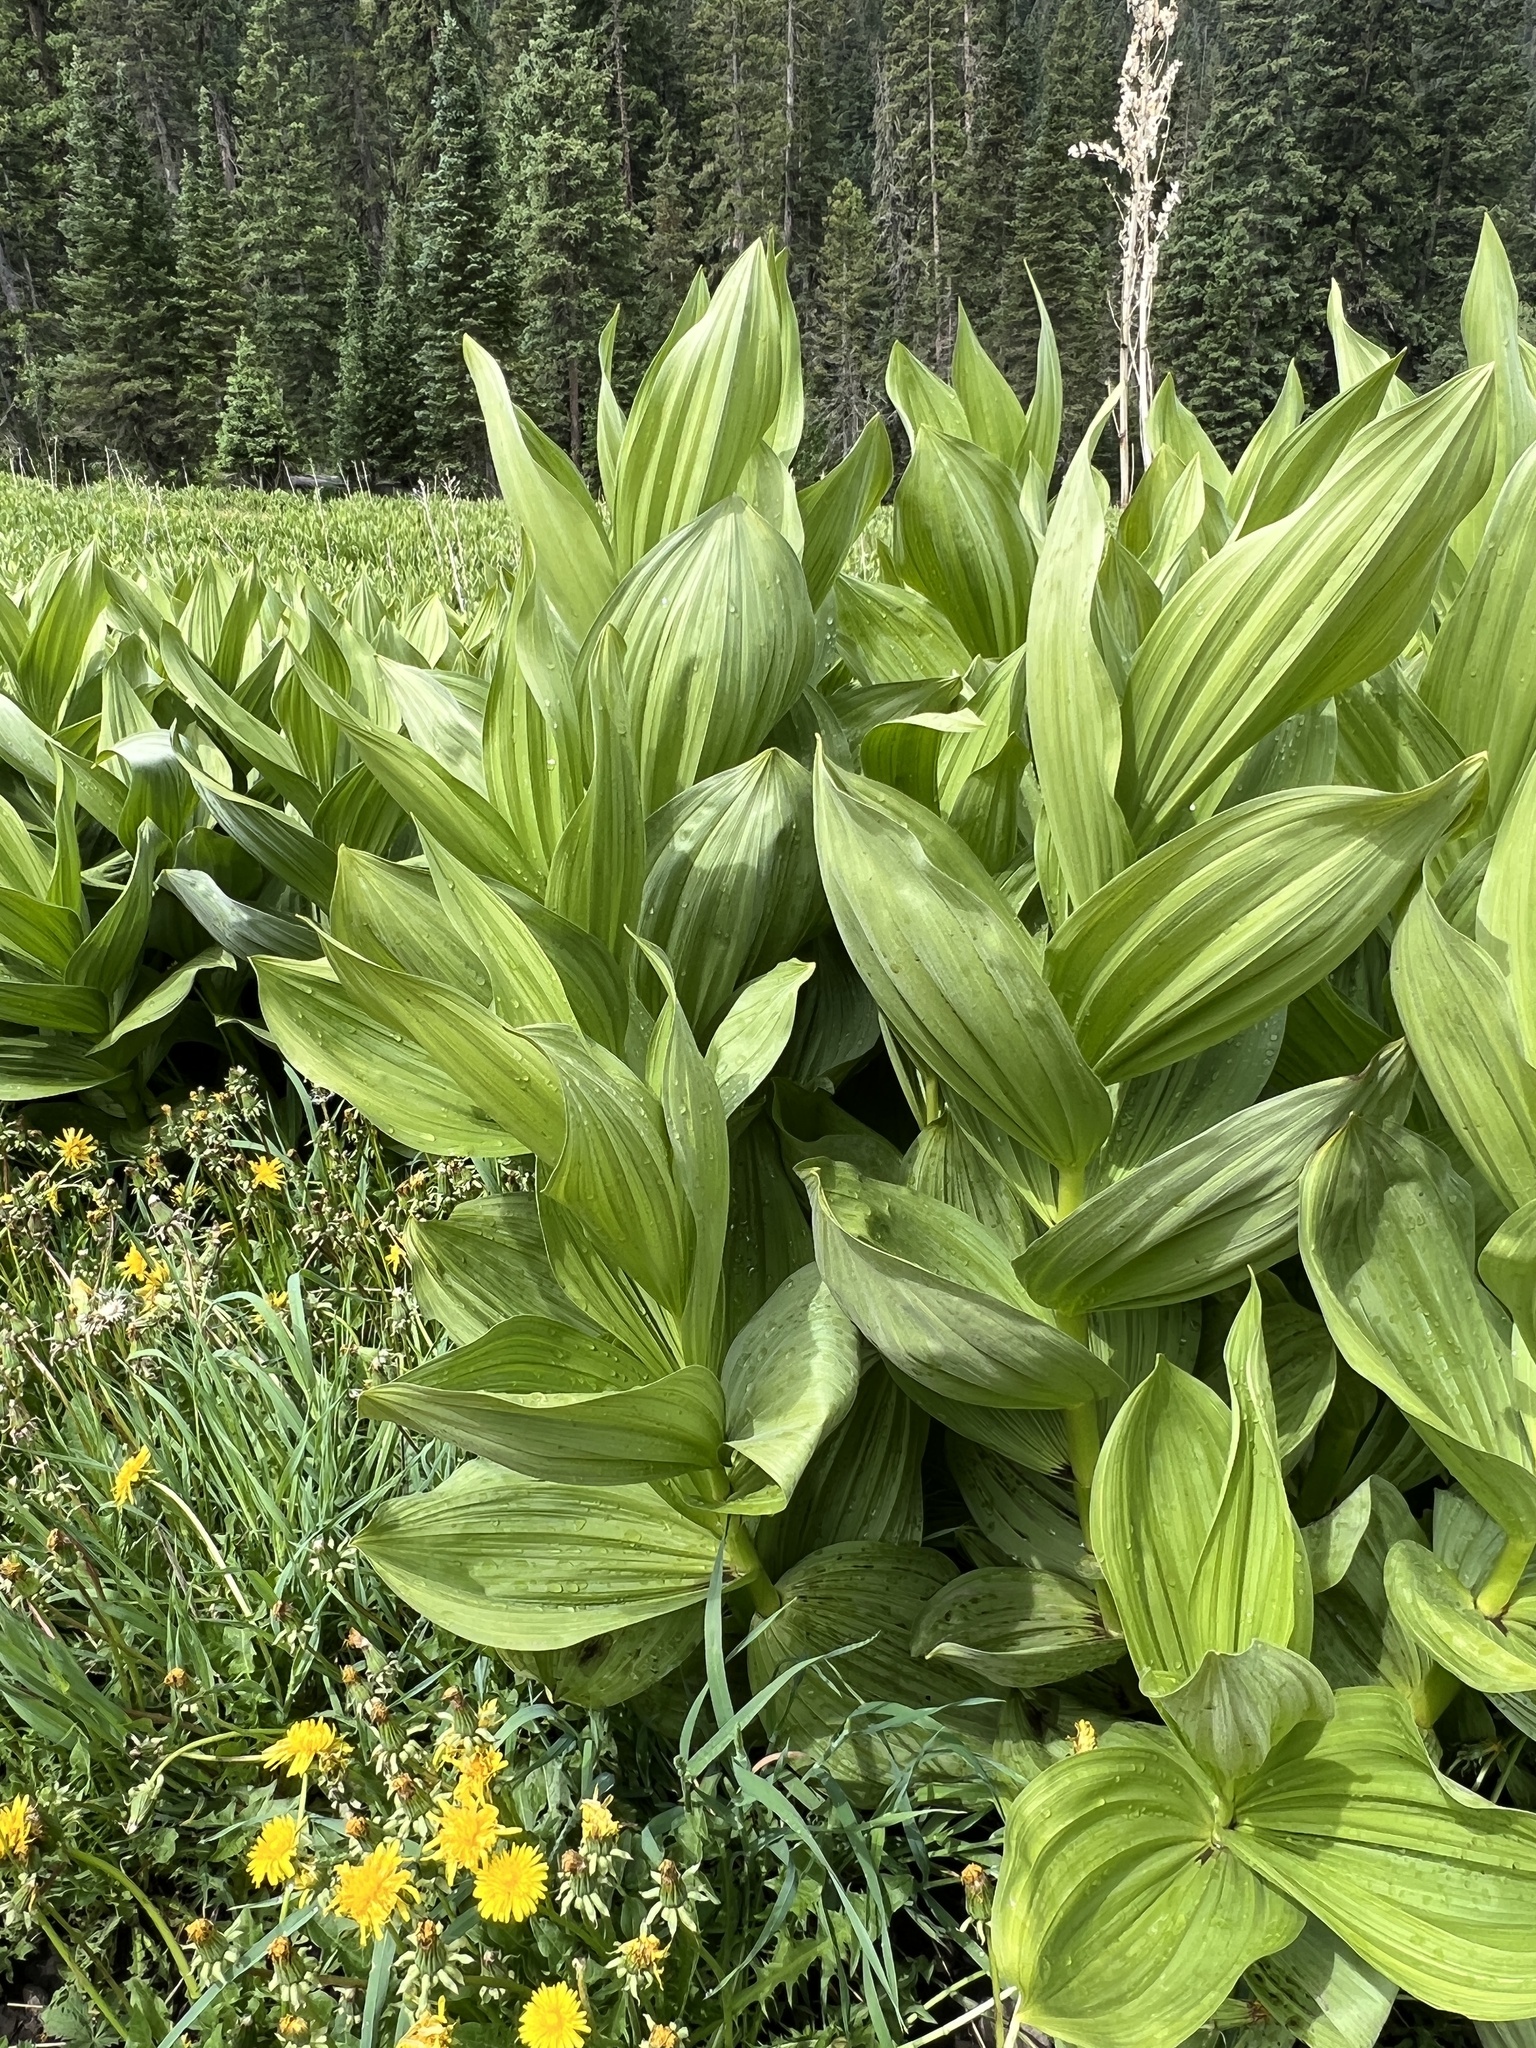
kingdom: Plantae
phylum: Tracheophyta
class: Liliopsida
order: Liliales
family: Melanthiaceae
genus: Veratrum
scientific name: Veratrum californicum
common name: California veratrum
